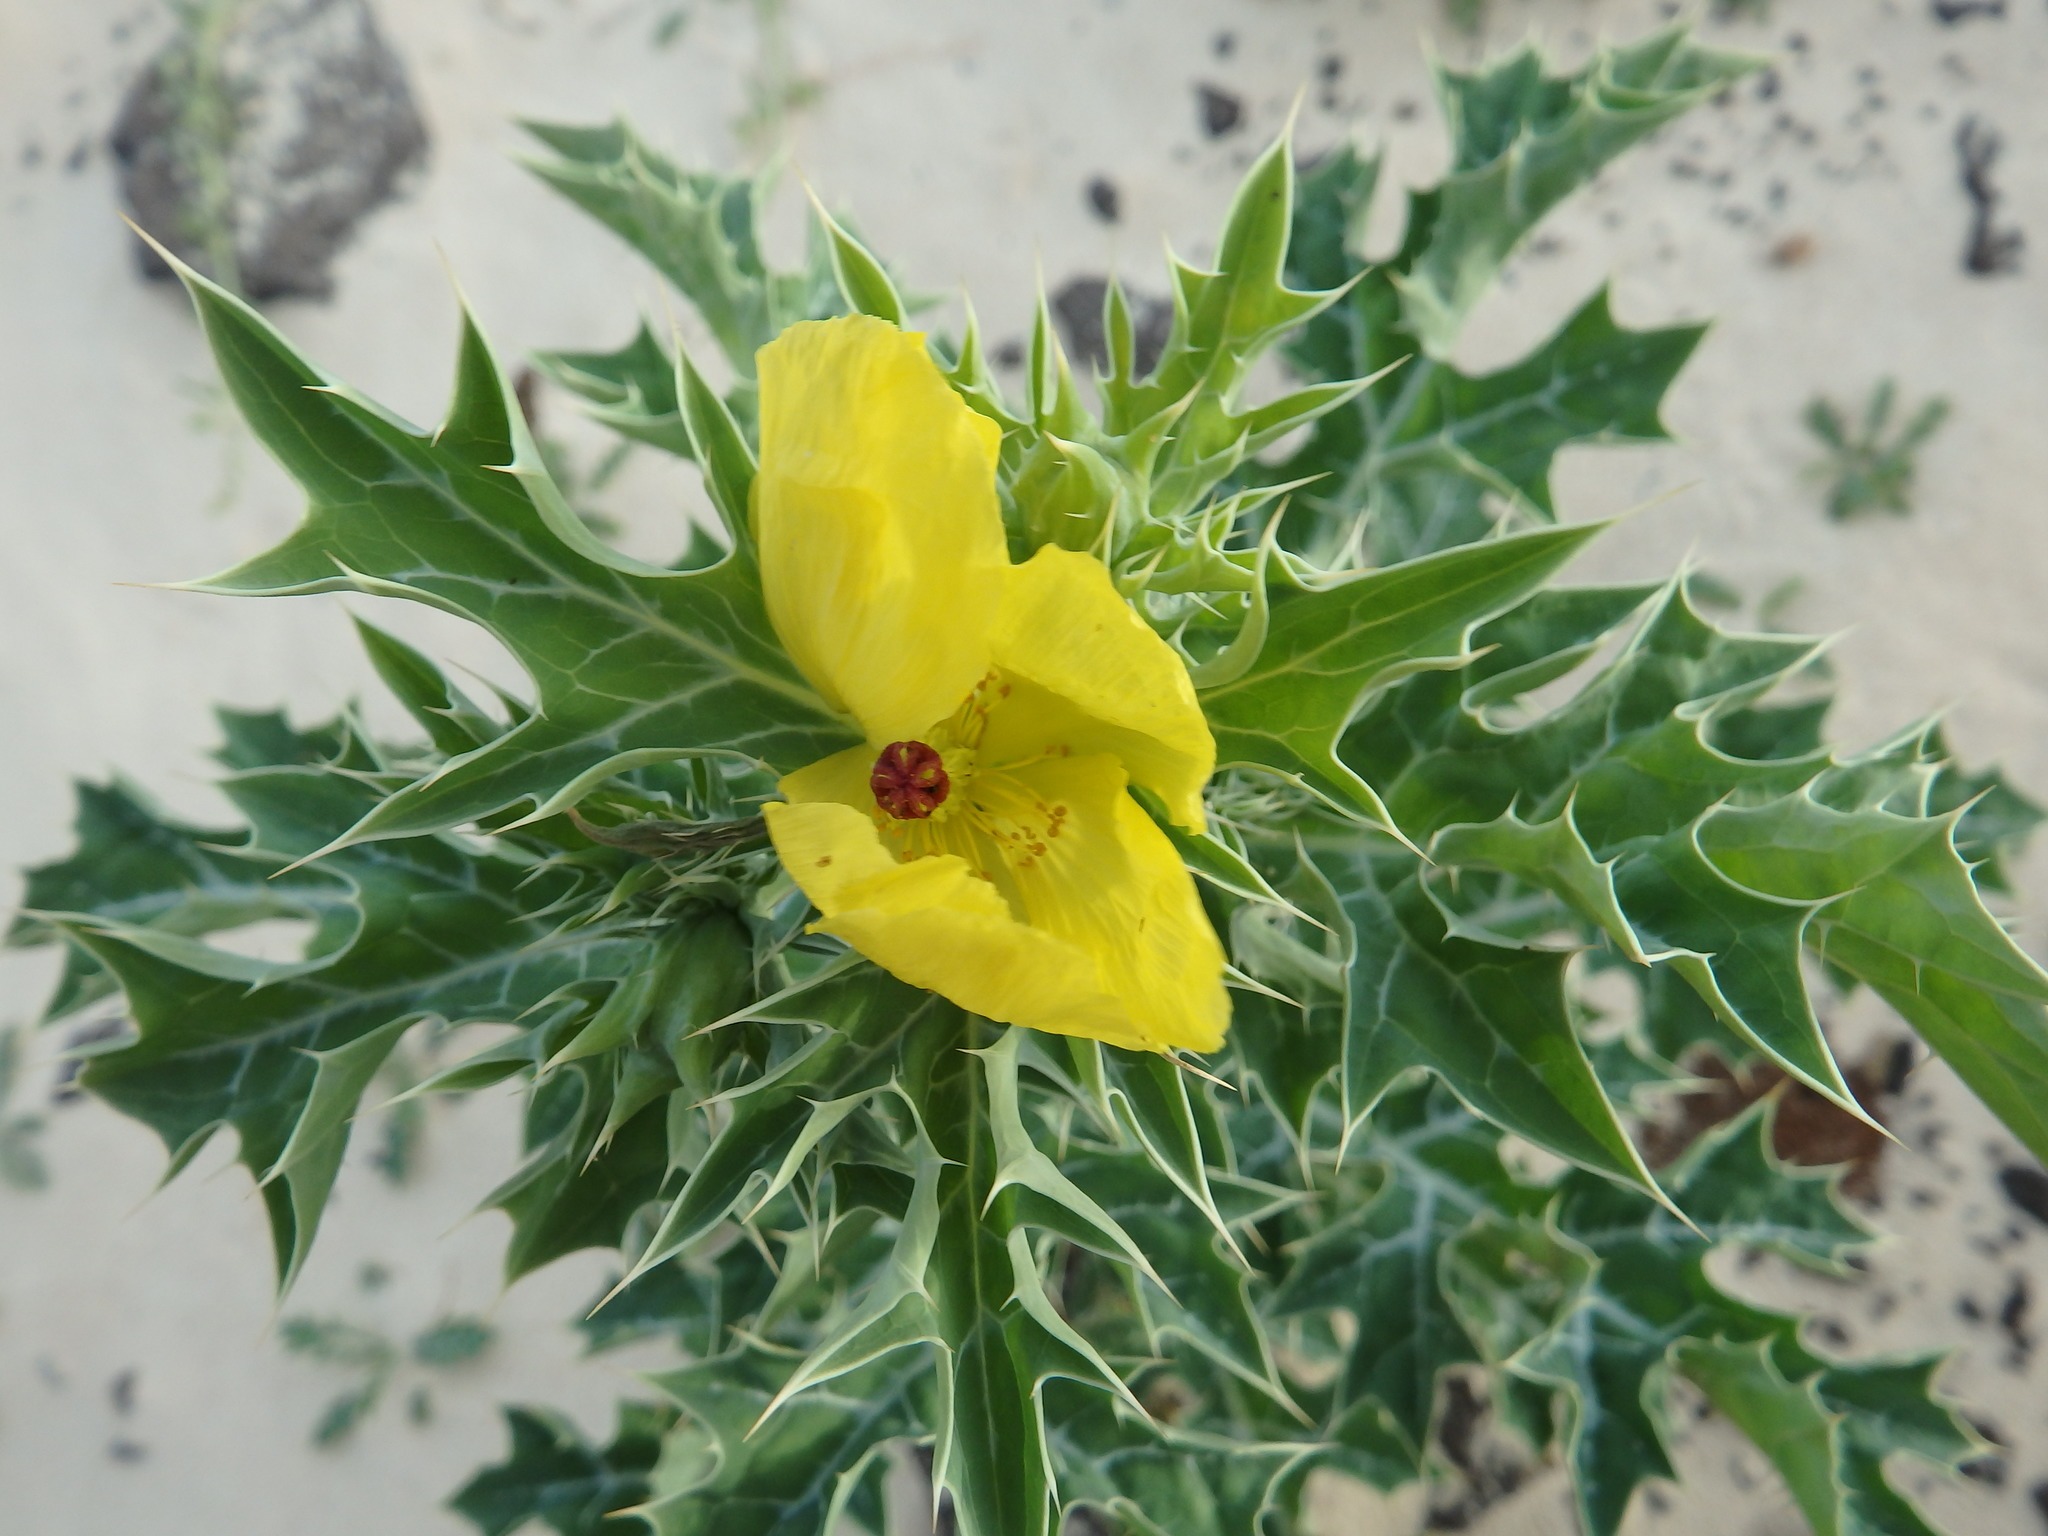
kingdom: Plantae
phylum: Tracheophyta
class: Magnoliopsida
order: Ranunculales
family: Papaveraceae
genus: Argemone
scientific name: Argemone mexicana
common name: Mexican poppy
